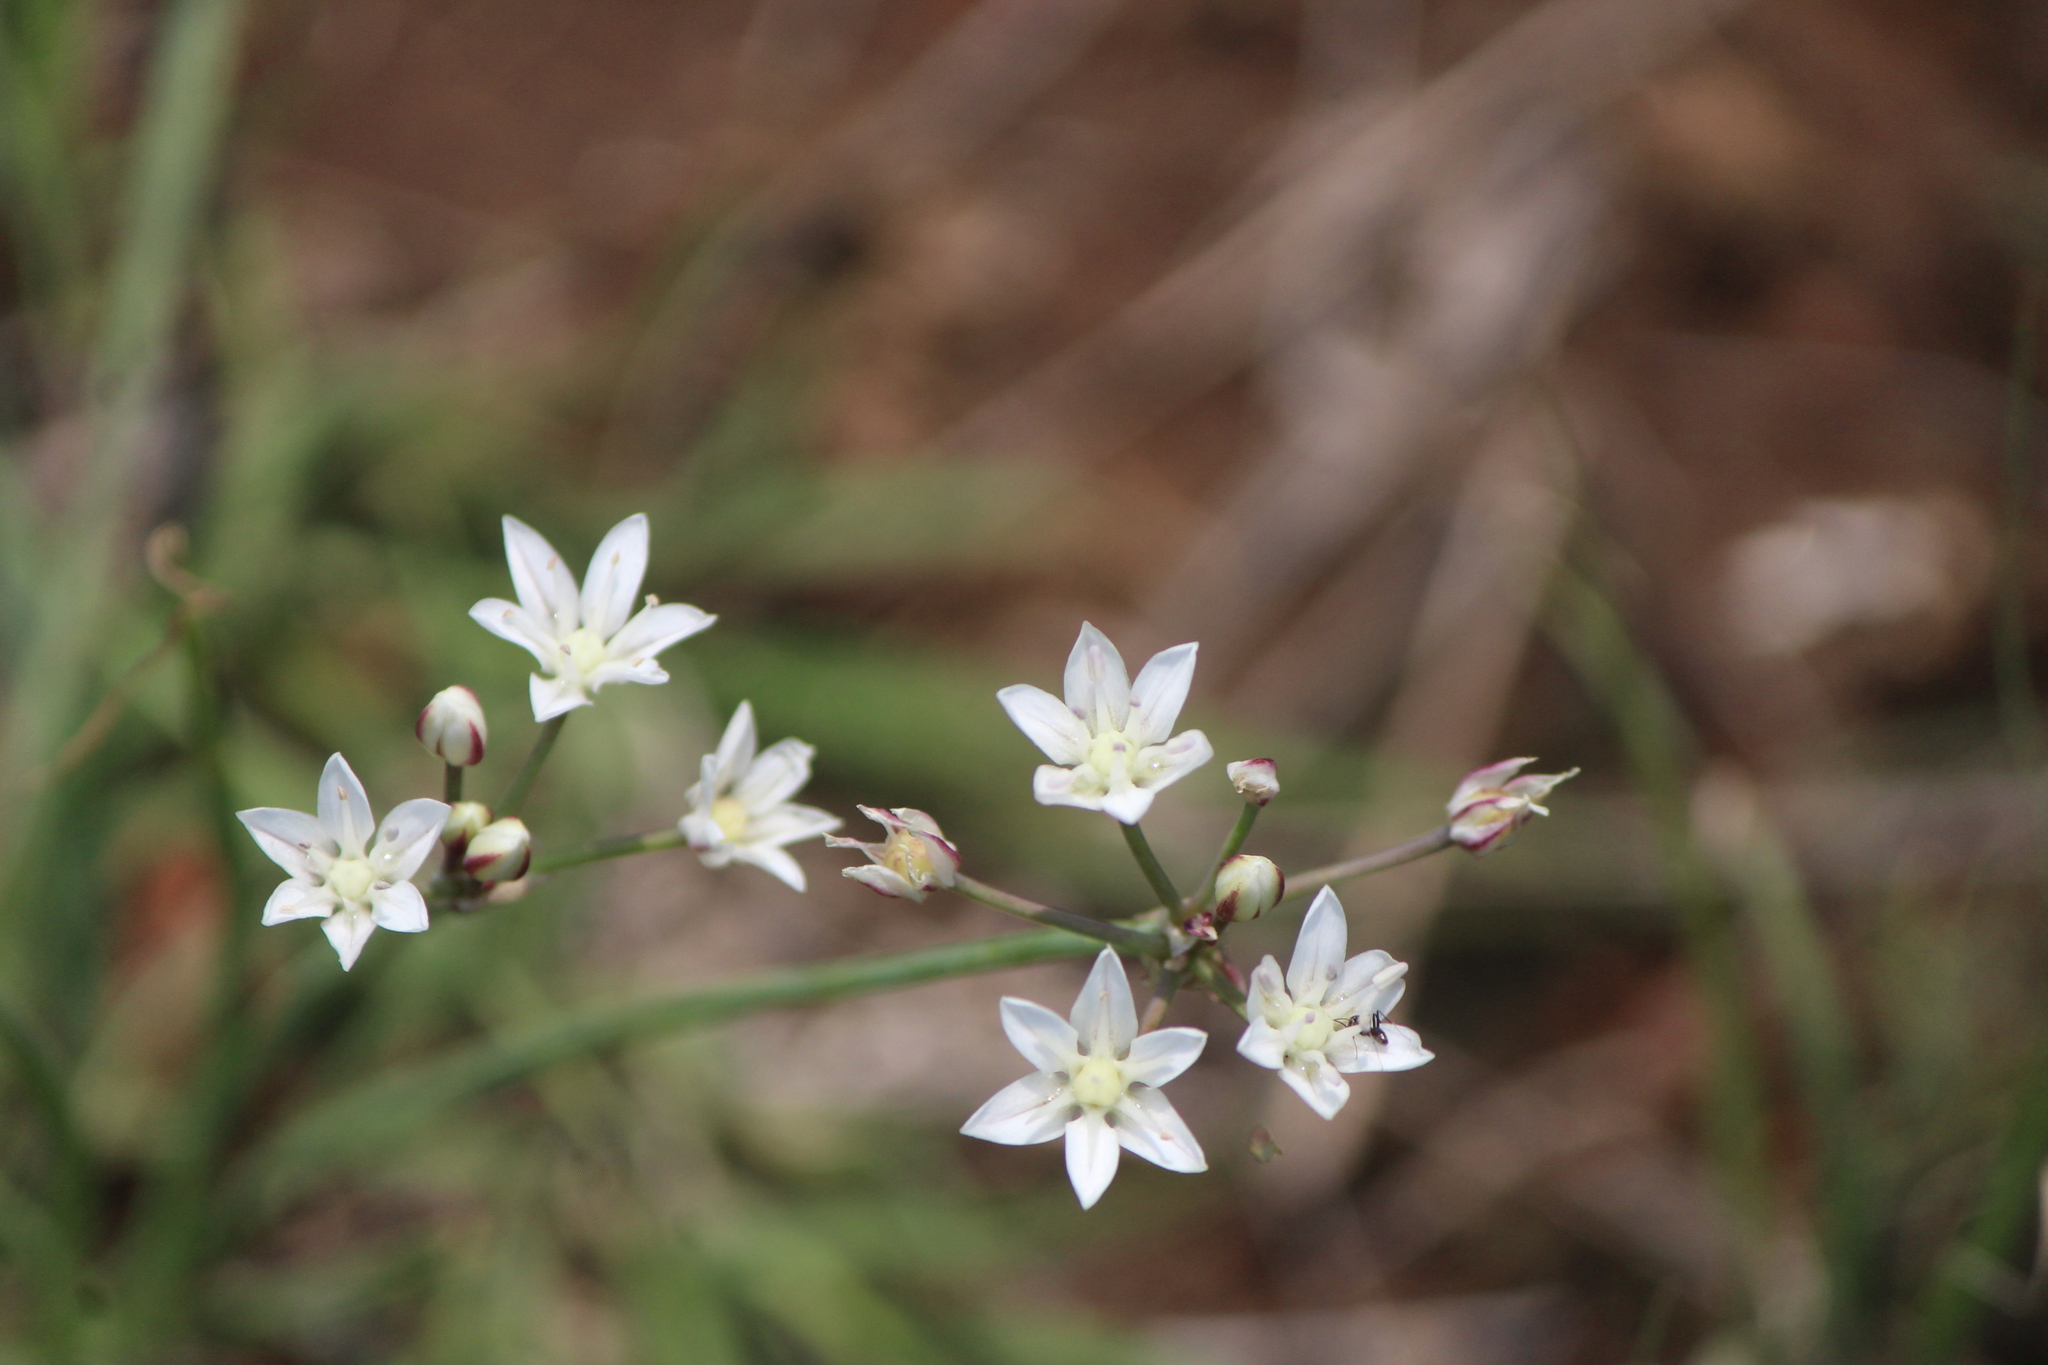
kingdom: Plantae
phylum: Tracheophyta
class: Liliopsida
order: Asparagales
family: Amaryllidaceae
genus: Allium
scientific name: Allium glandulosum
